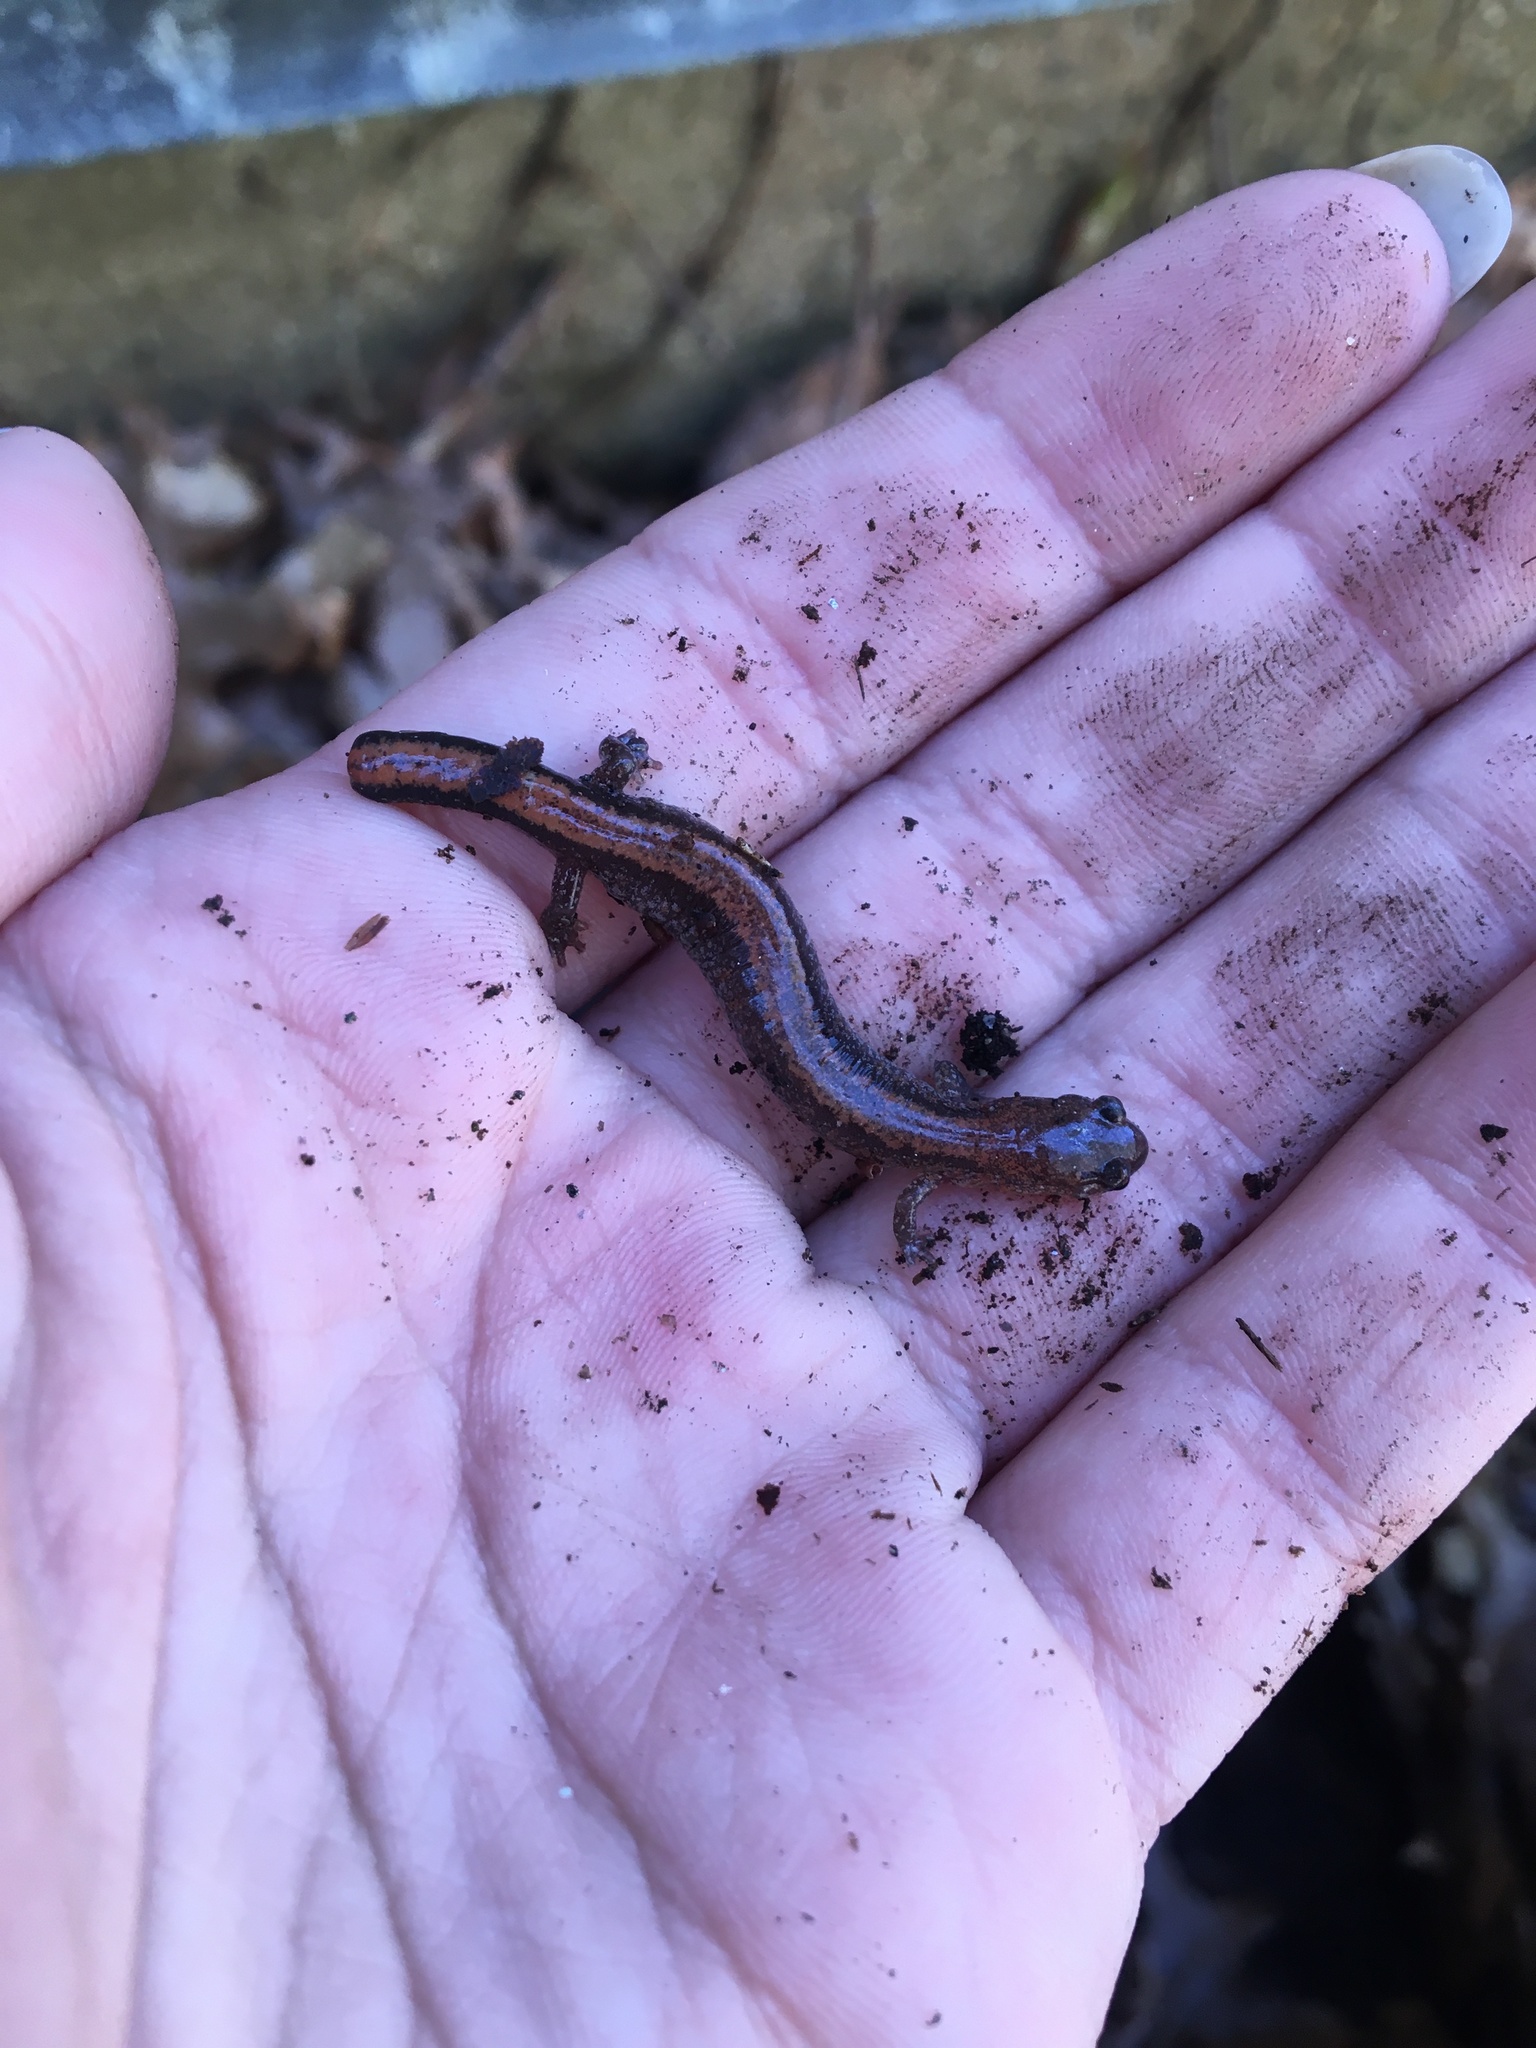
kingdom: Animalia
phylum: Chordata
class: Amphibia
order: Caudata
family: Plethodontidae
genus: Plethodon
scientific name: Plethodon cinereus
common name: Redback salamander
